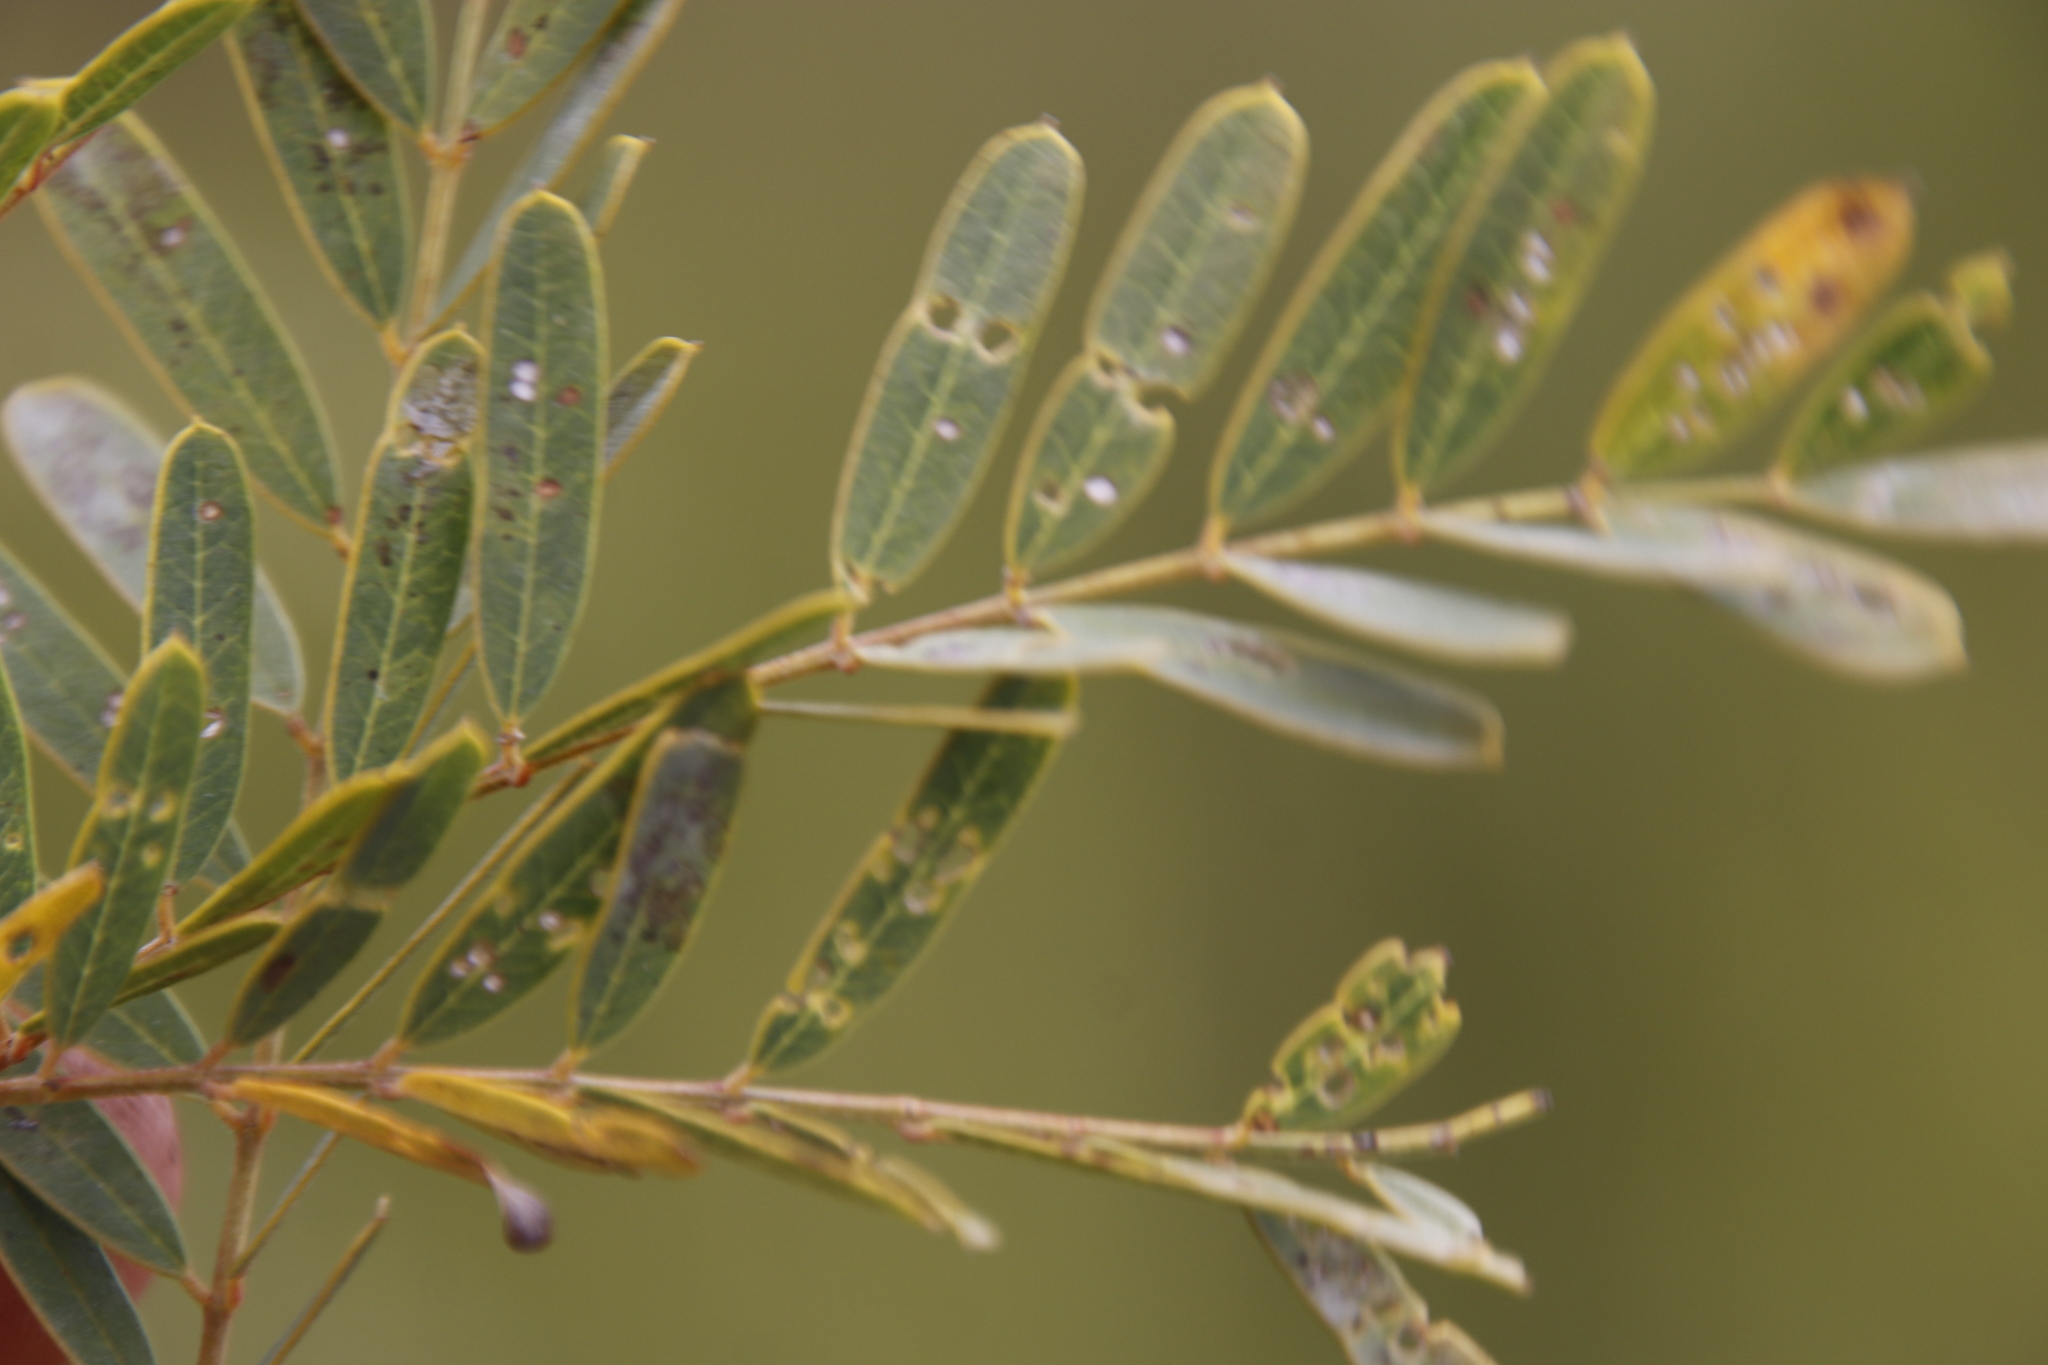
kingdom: Plantae
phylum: Tracheophyta
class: Magnoliopsida
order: Fabales
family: Fabaceae
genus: Sesbania
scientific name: Sesbania punicea
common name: Rattlebox
